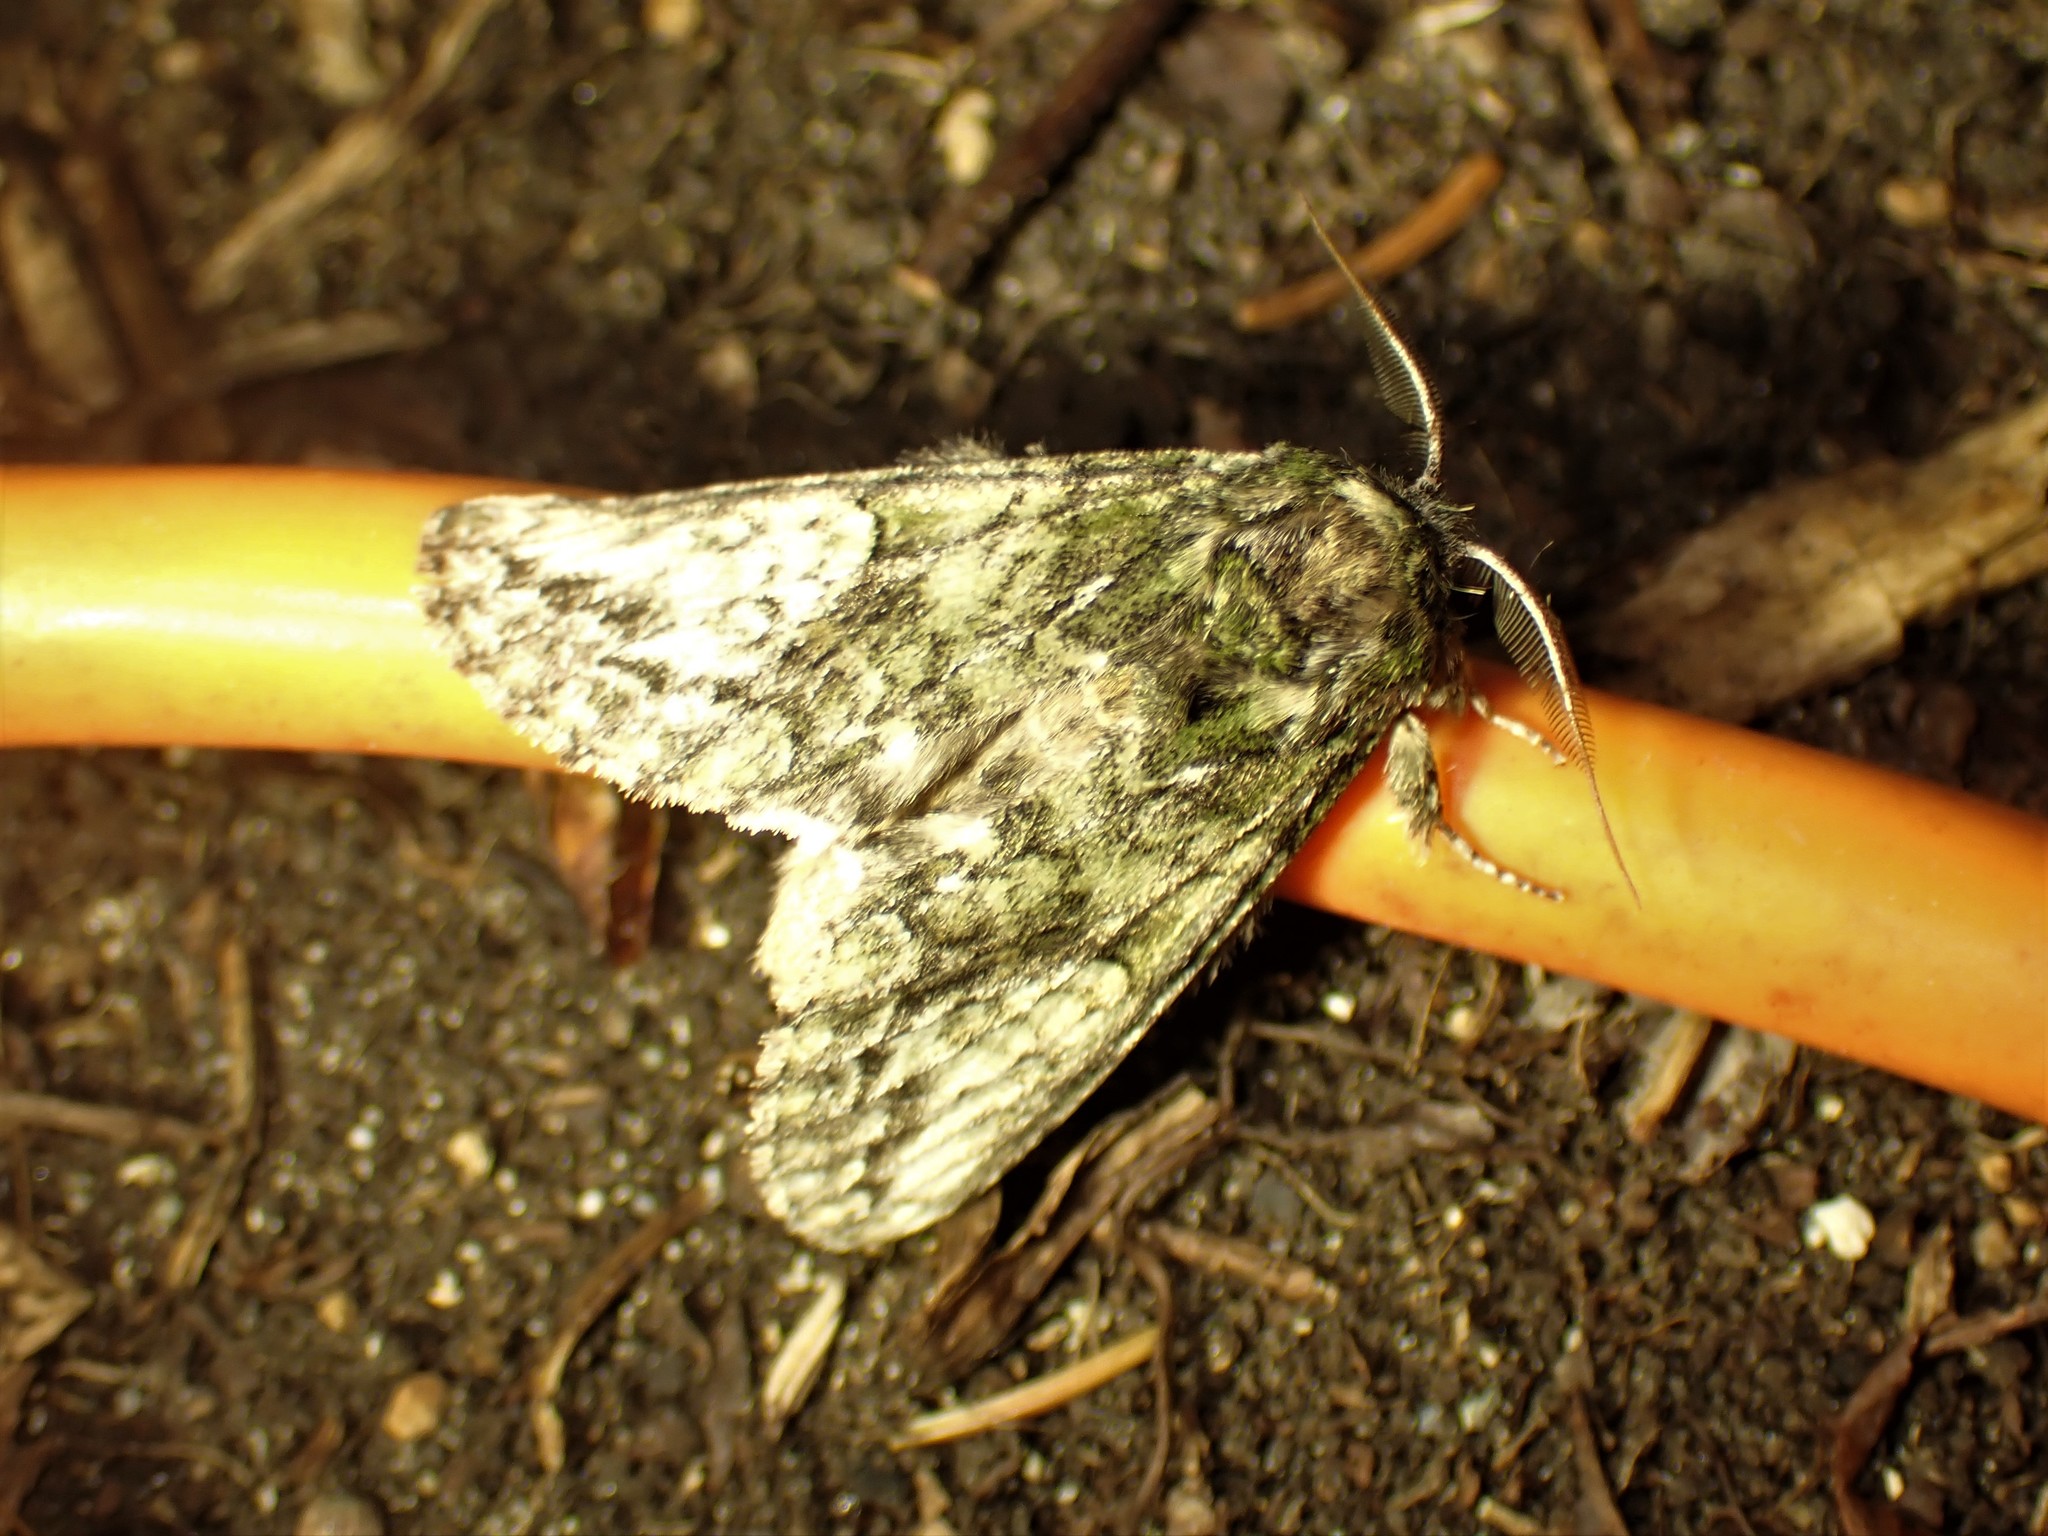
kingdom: Animalia
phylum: Arthropoda
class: Insecta
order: Lepidoptera
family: Notodontidae
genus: Heterocampa
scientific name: Heterocampa
